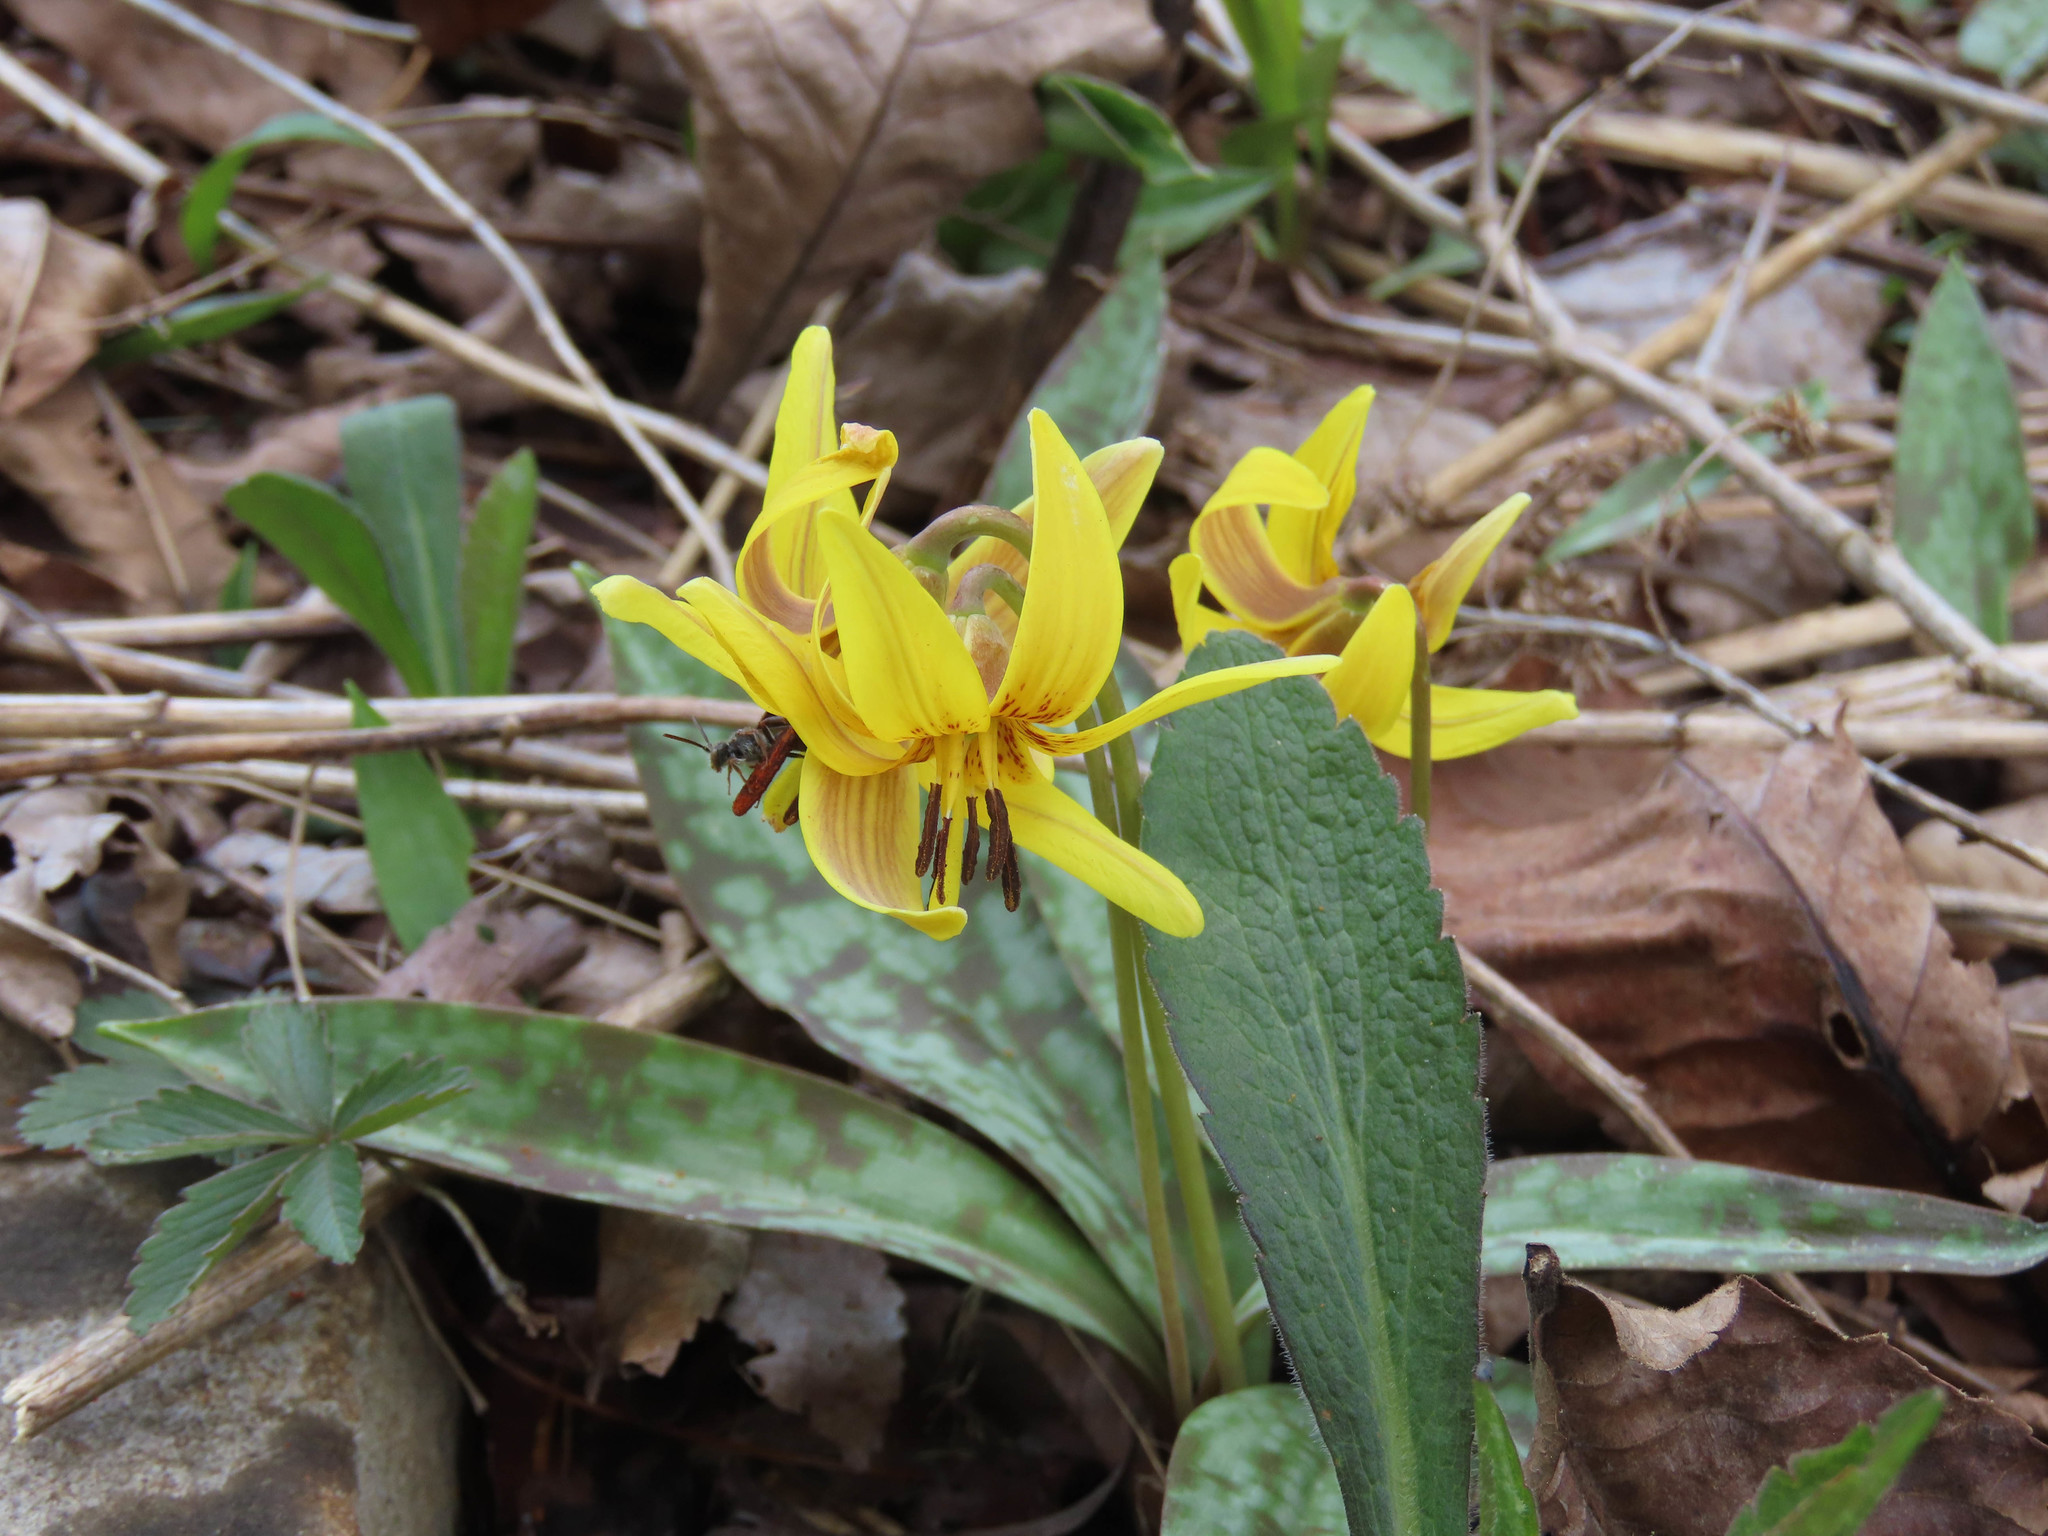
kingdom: Plantae
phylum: Tracheophyta
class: Liliopsida
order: Liliales
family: Liliaceae
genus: Erythronium
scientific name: Erythronium americanum
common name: Yellow adder's-tongue
